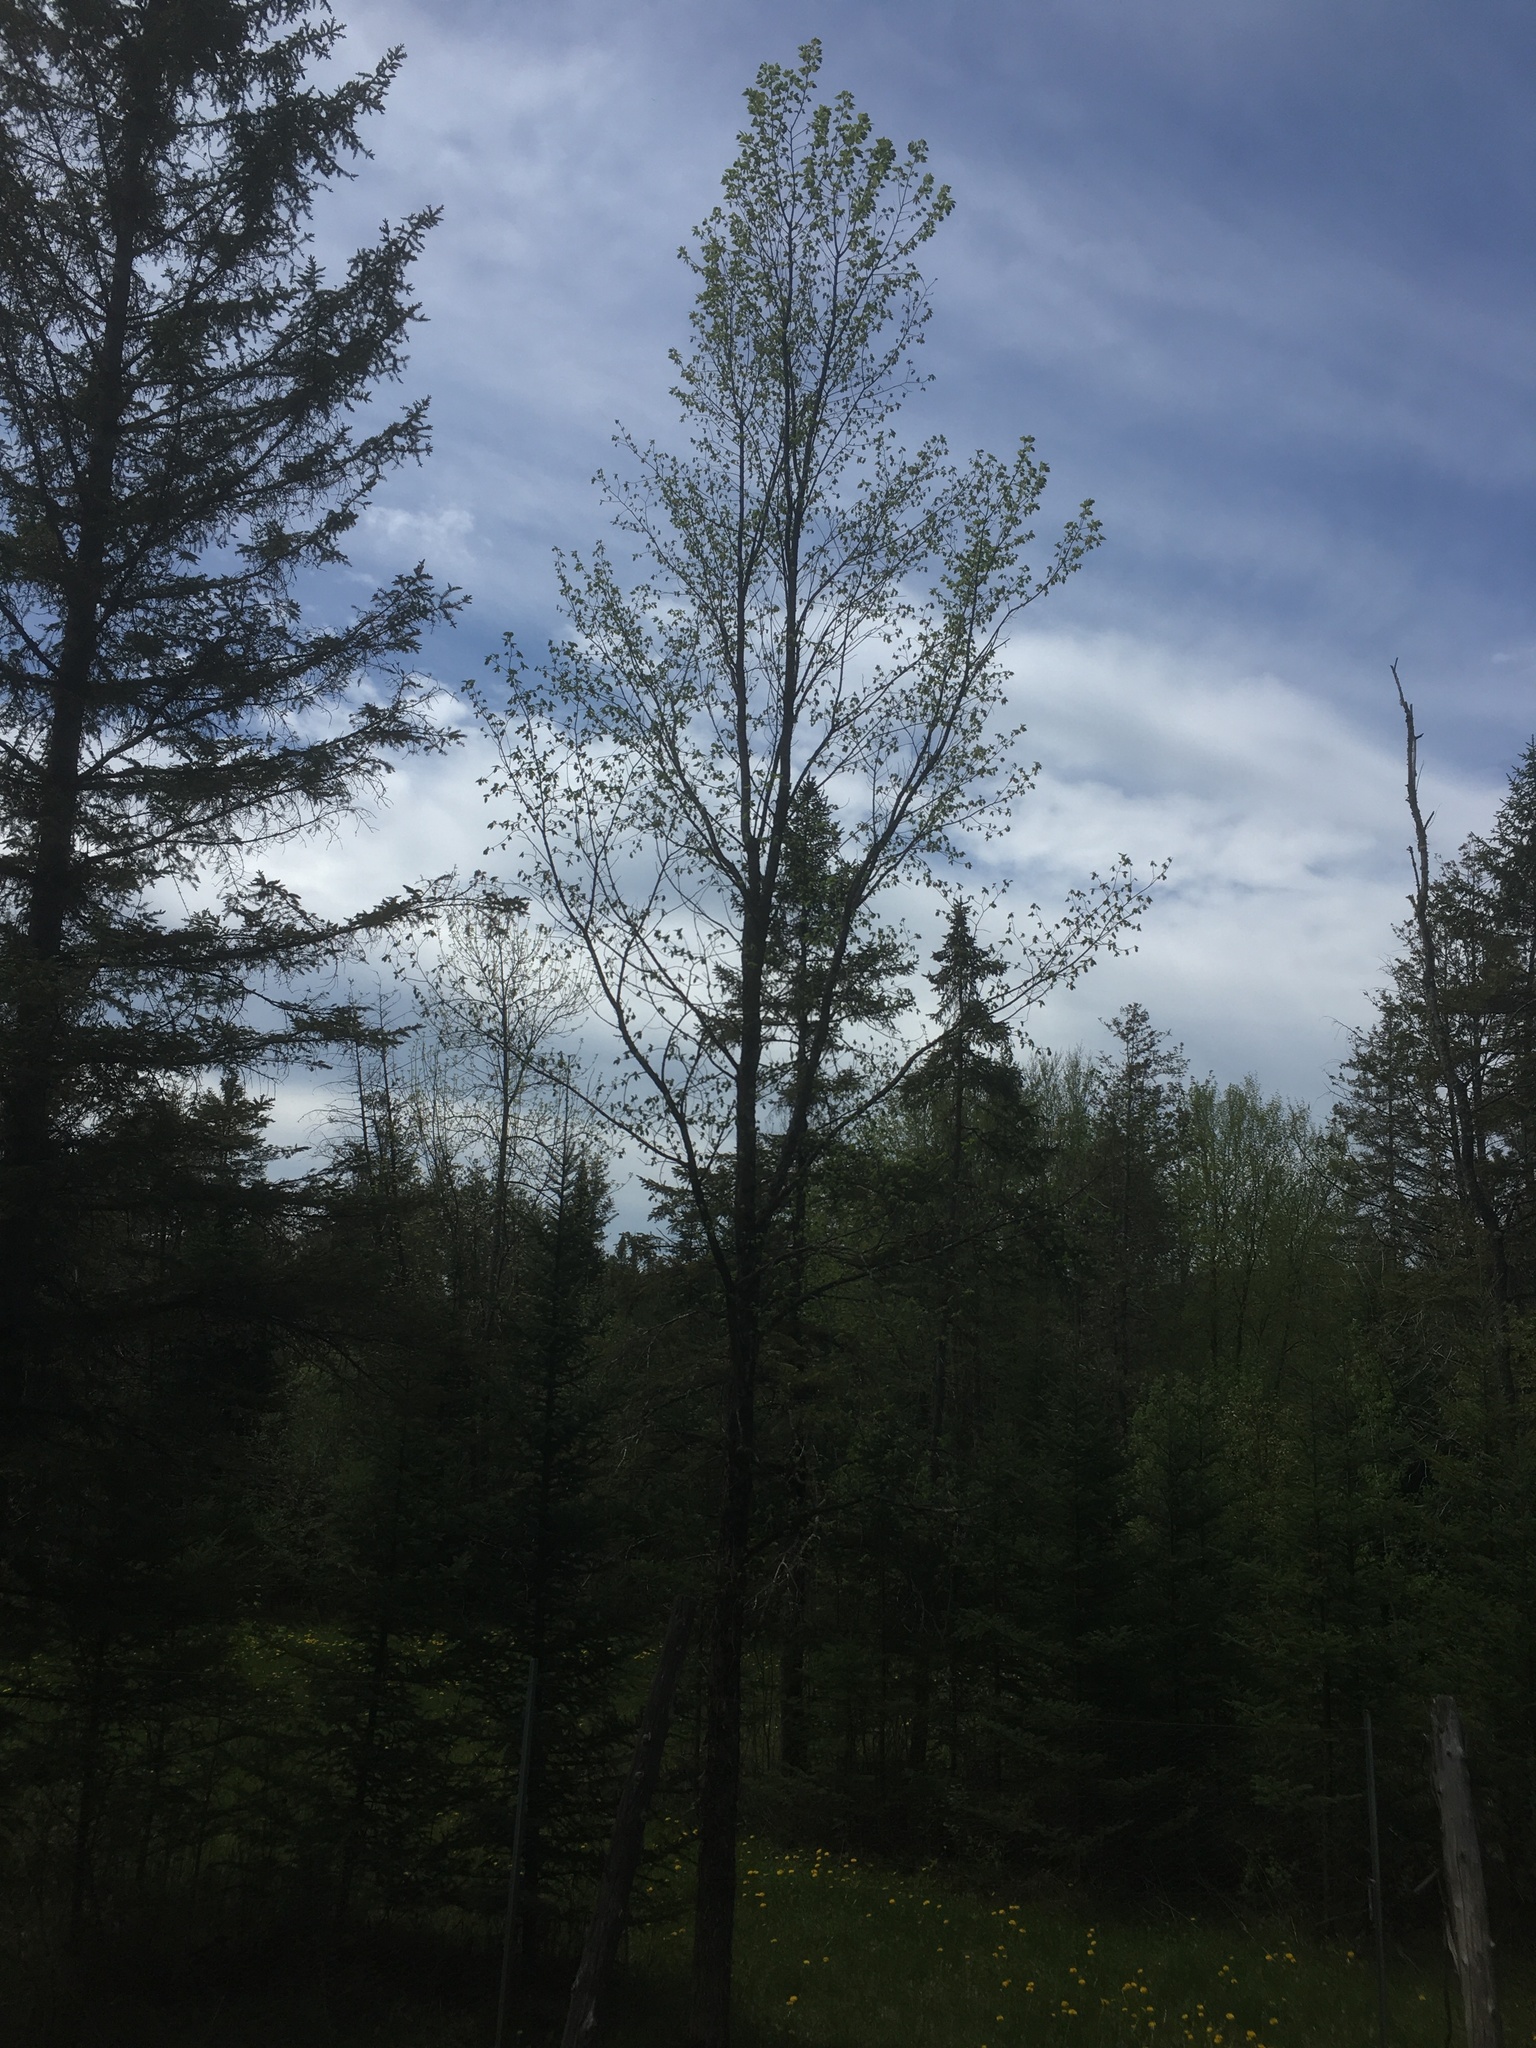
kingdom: Plantae
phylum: Tracheophyta
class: Magnoliopsida
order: Rosales
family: Ulmaceae
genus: Ulmus
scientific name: Ulmus americana
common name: American elm
